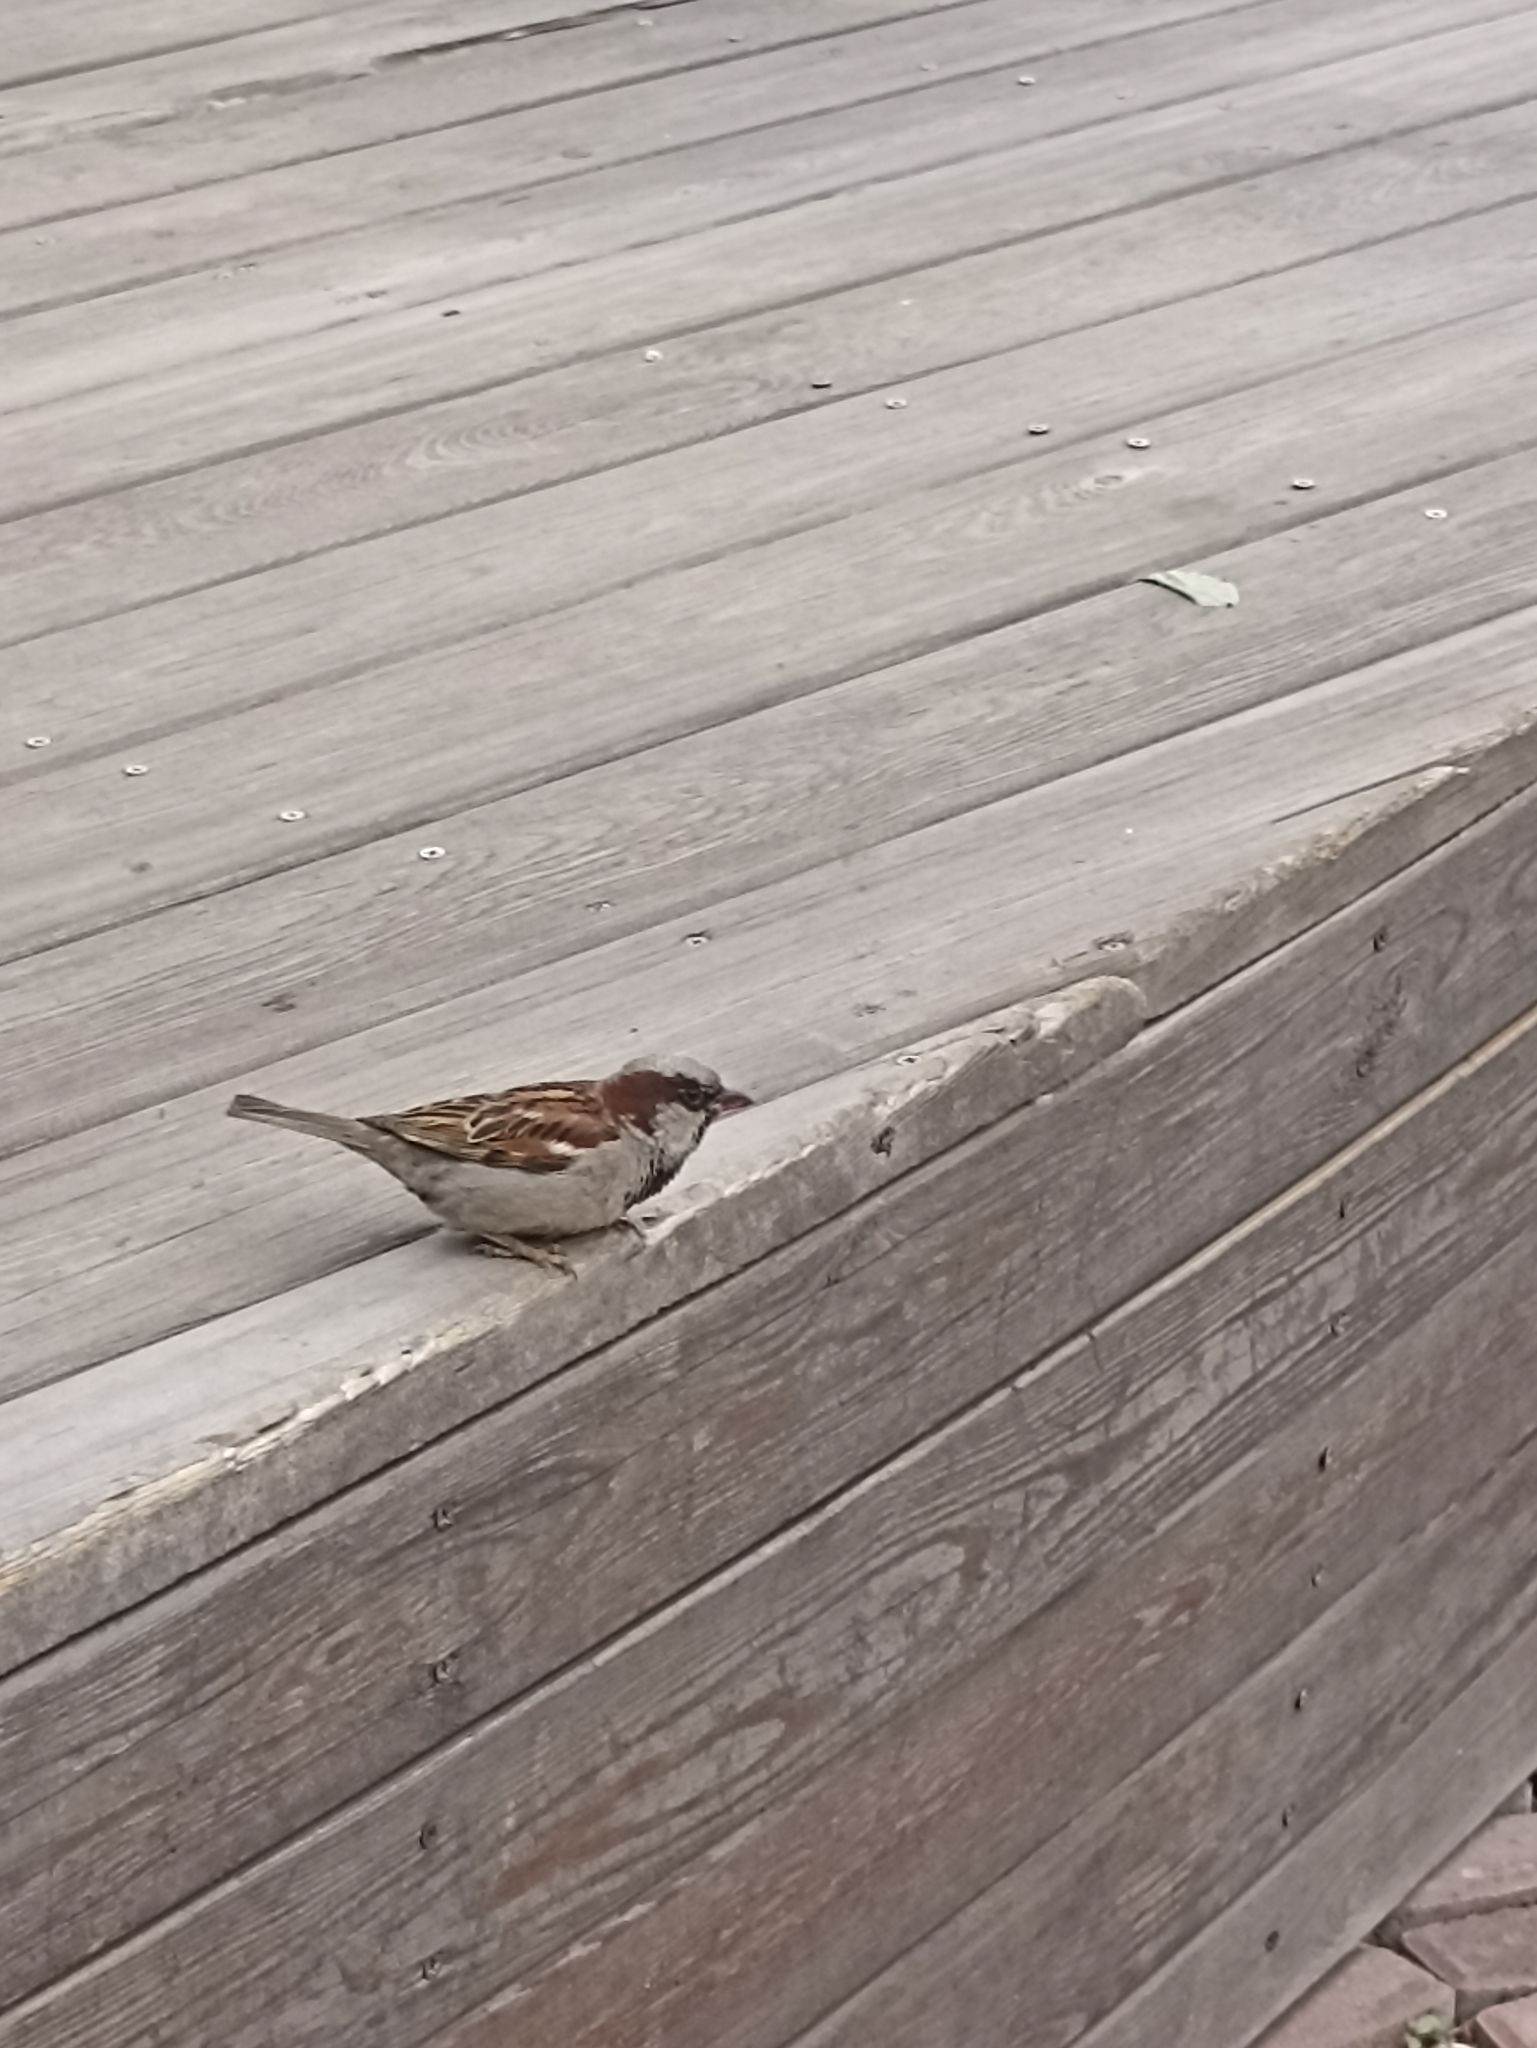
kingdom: Animalia
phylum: Chordata
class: Aves
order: Passeriformes
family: Passeridae
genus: Passer
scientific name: Passer domesticus
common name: House sparrow
